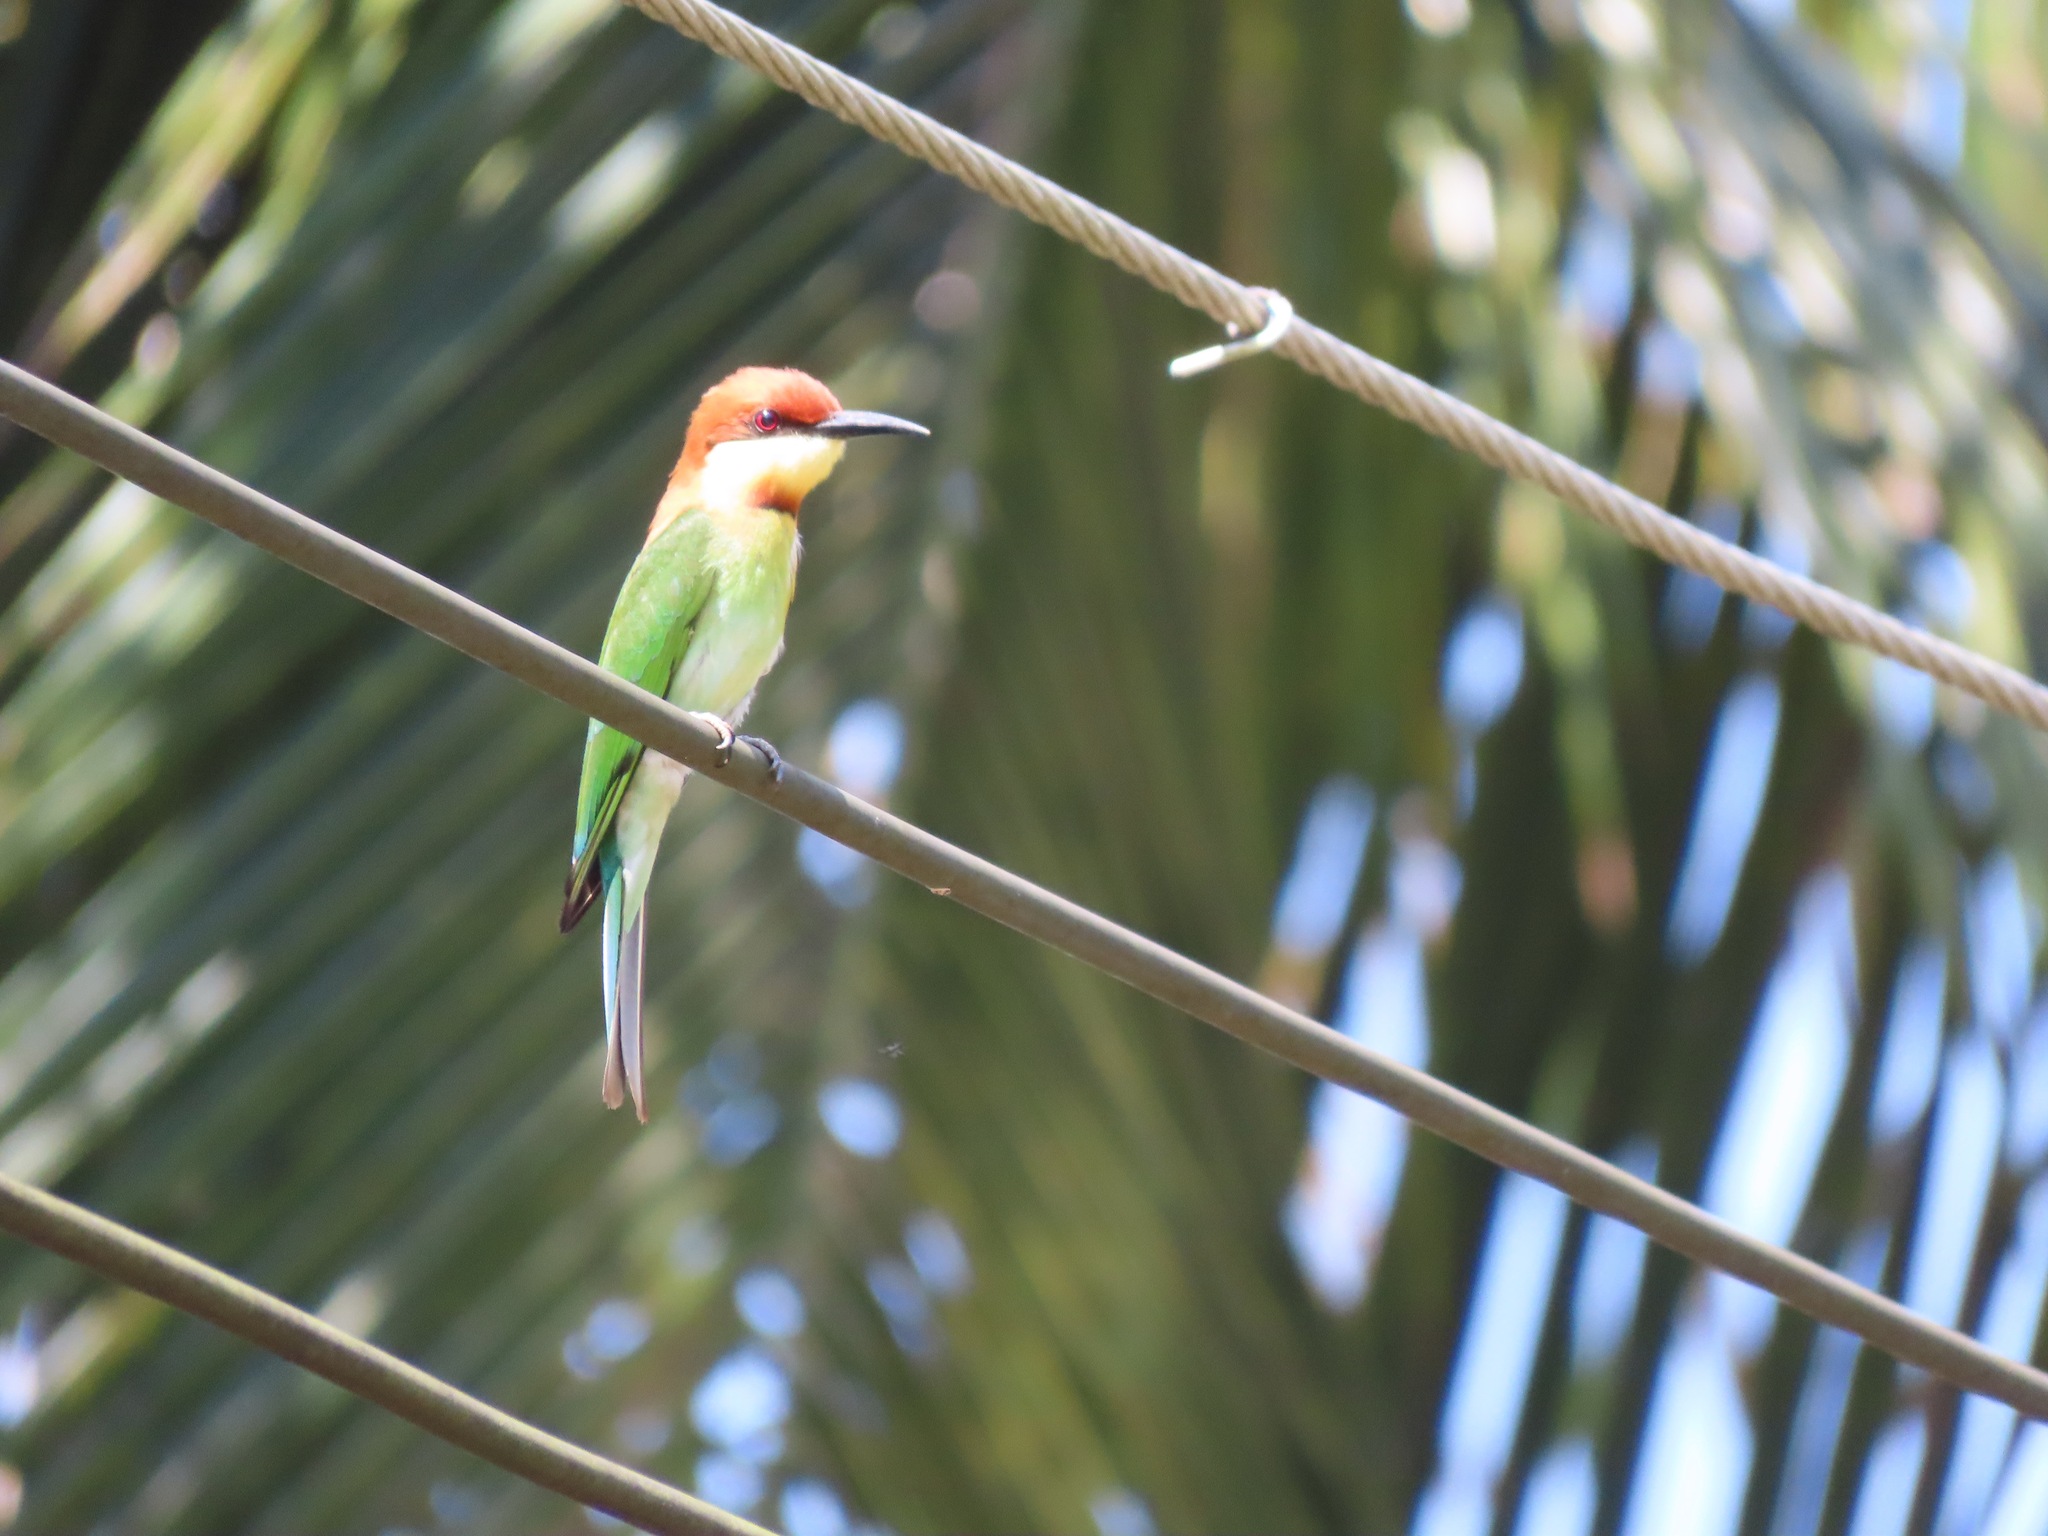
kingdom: Animalia
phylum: Chordata
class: Aves
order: Coraciiformes
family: Meropidae
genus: Merops
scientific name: Merops leschenaulti
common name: Chestnut-headed bee-eater
